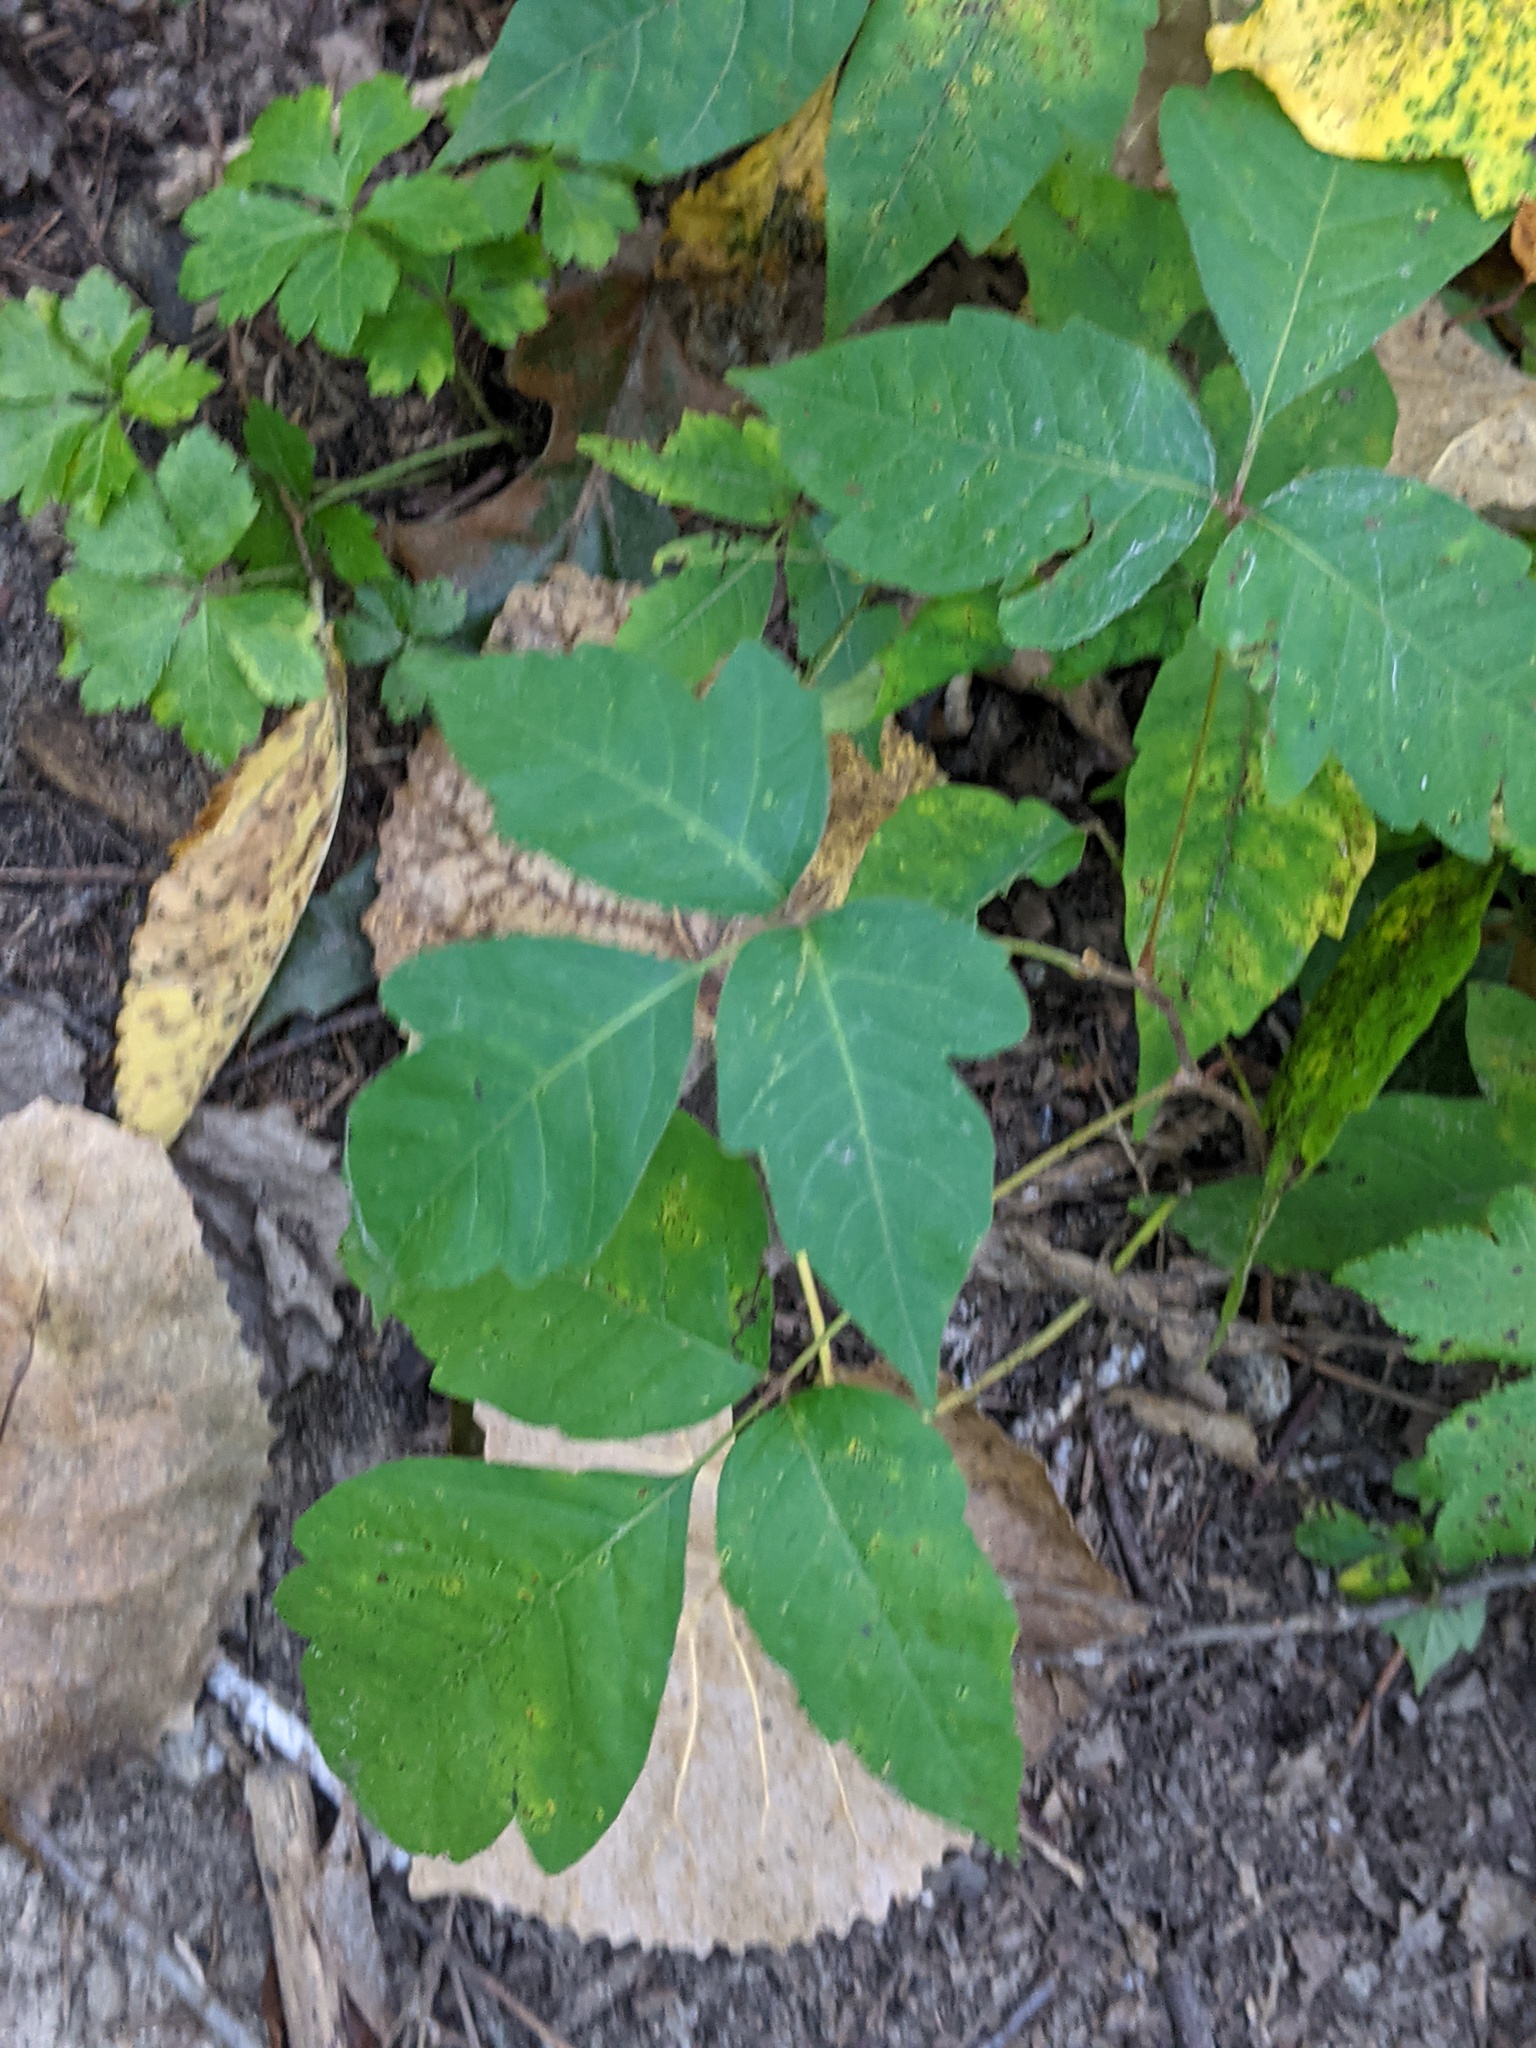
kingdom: Plantae
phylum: Tracheophyta
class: Magnoliopsida
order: Sapindales
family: Anacardiaceae
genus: Toxicodendron
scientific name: Toxicodendron radicans
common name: Poison ivy
